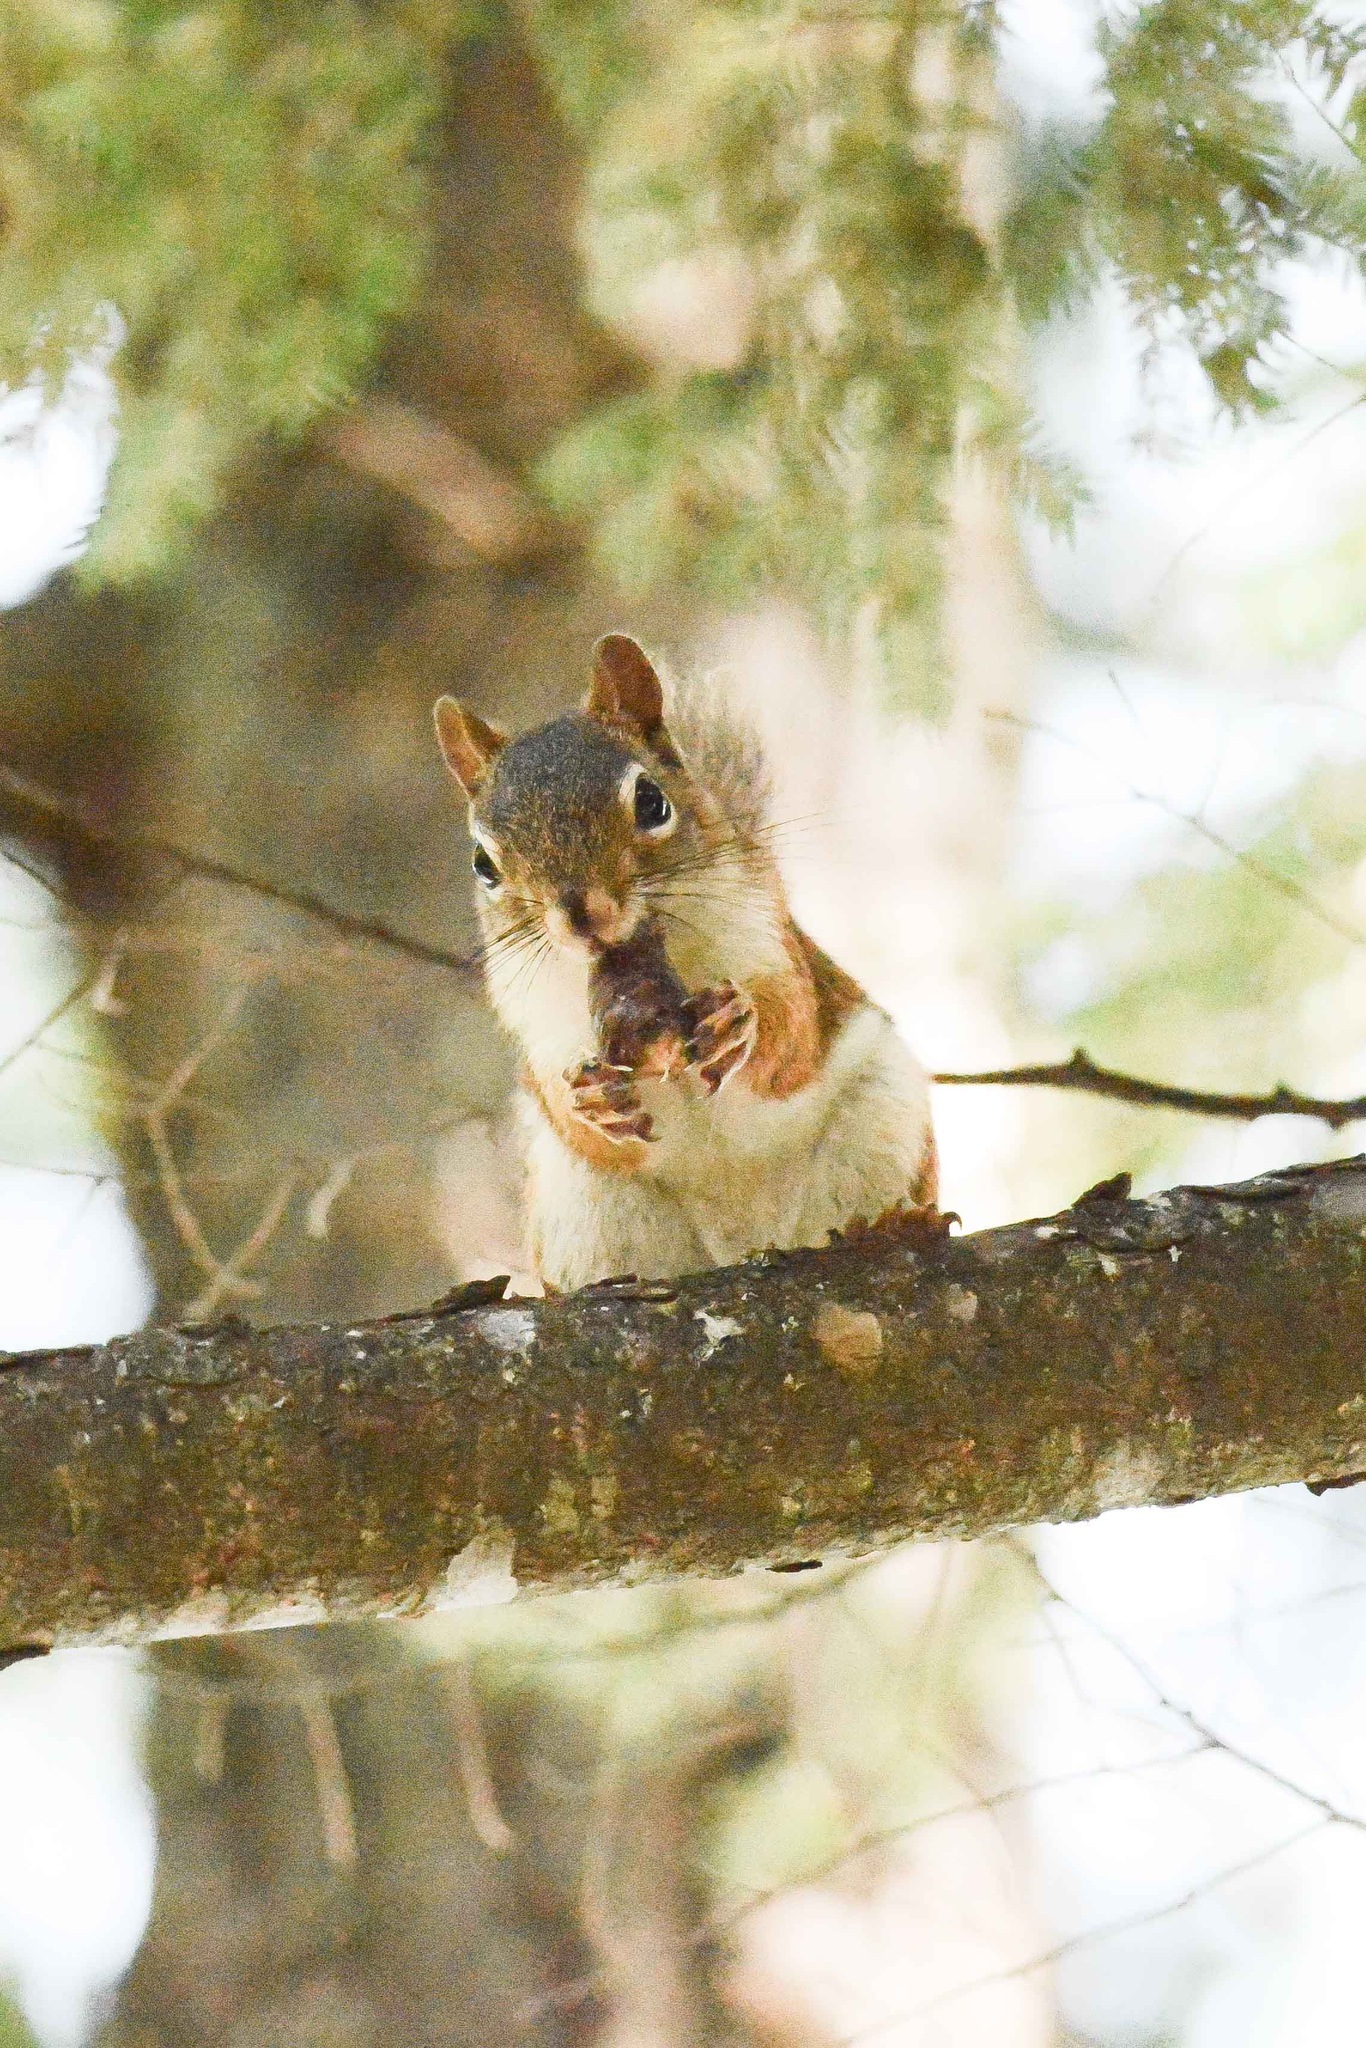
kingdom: Animalia
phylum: Chordata
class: Mammalia
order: Rodentia
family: Sciuridae
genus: Tamiasciurus
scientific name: Tamiasciurus hudsonicus
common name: Red squirrel
